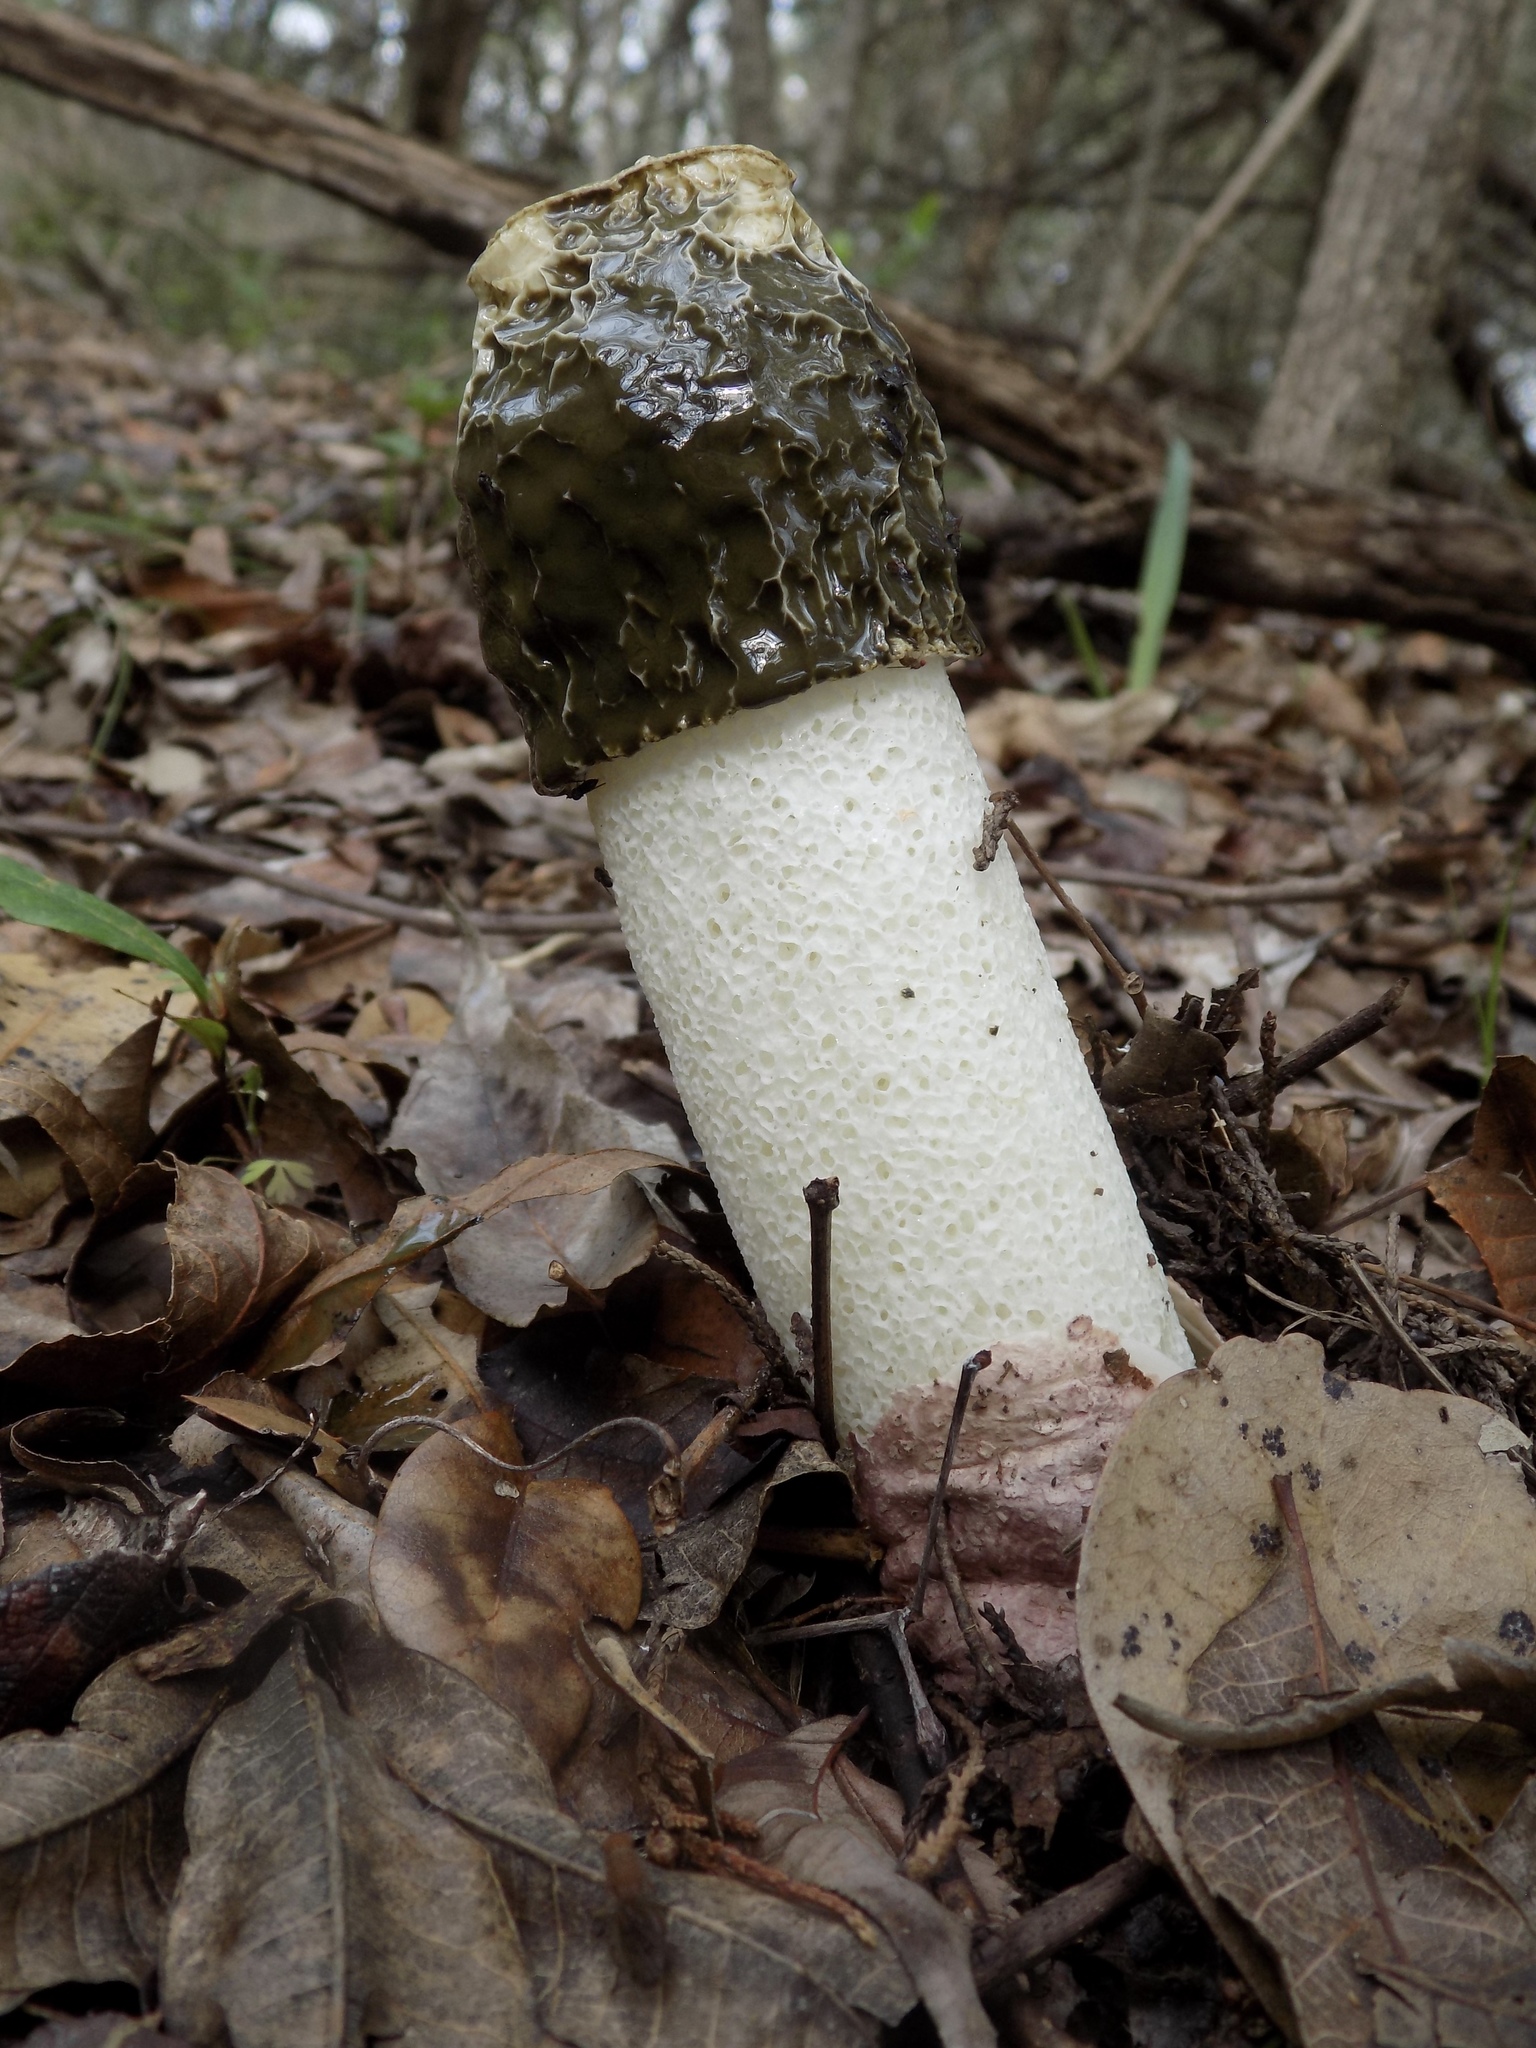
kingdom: Fungi
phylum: Basidiomycota
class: Agaricomycetes
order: Phallales
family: Phallaceae
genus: Phallus
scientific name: Phallus hadriani
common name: Sand stinkhorn
